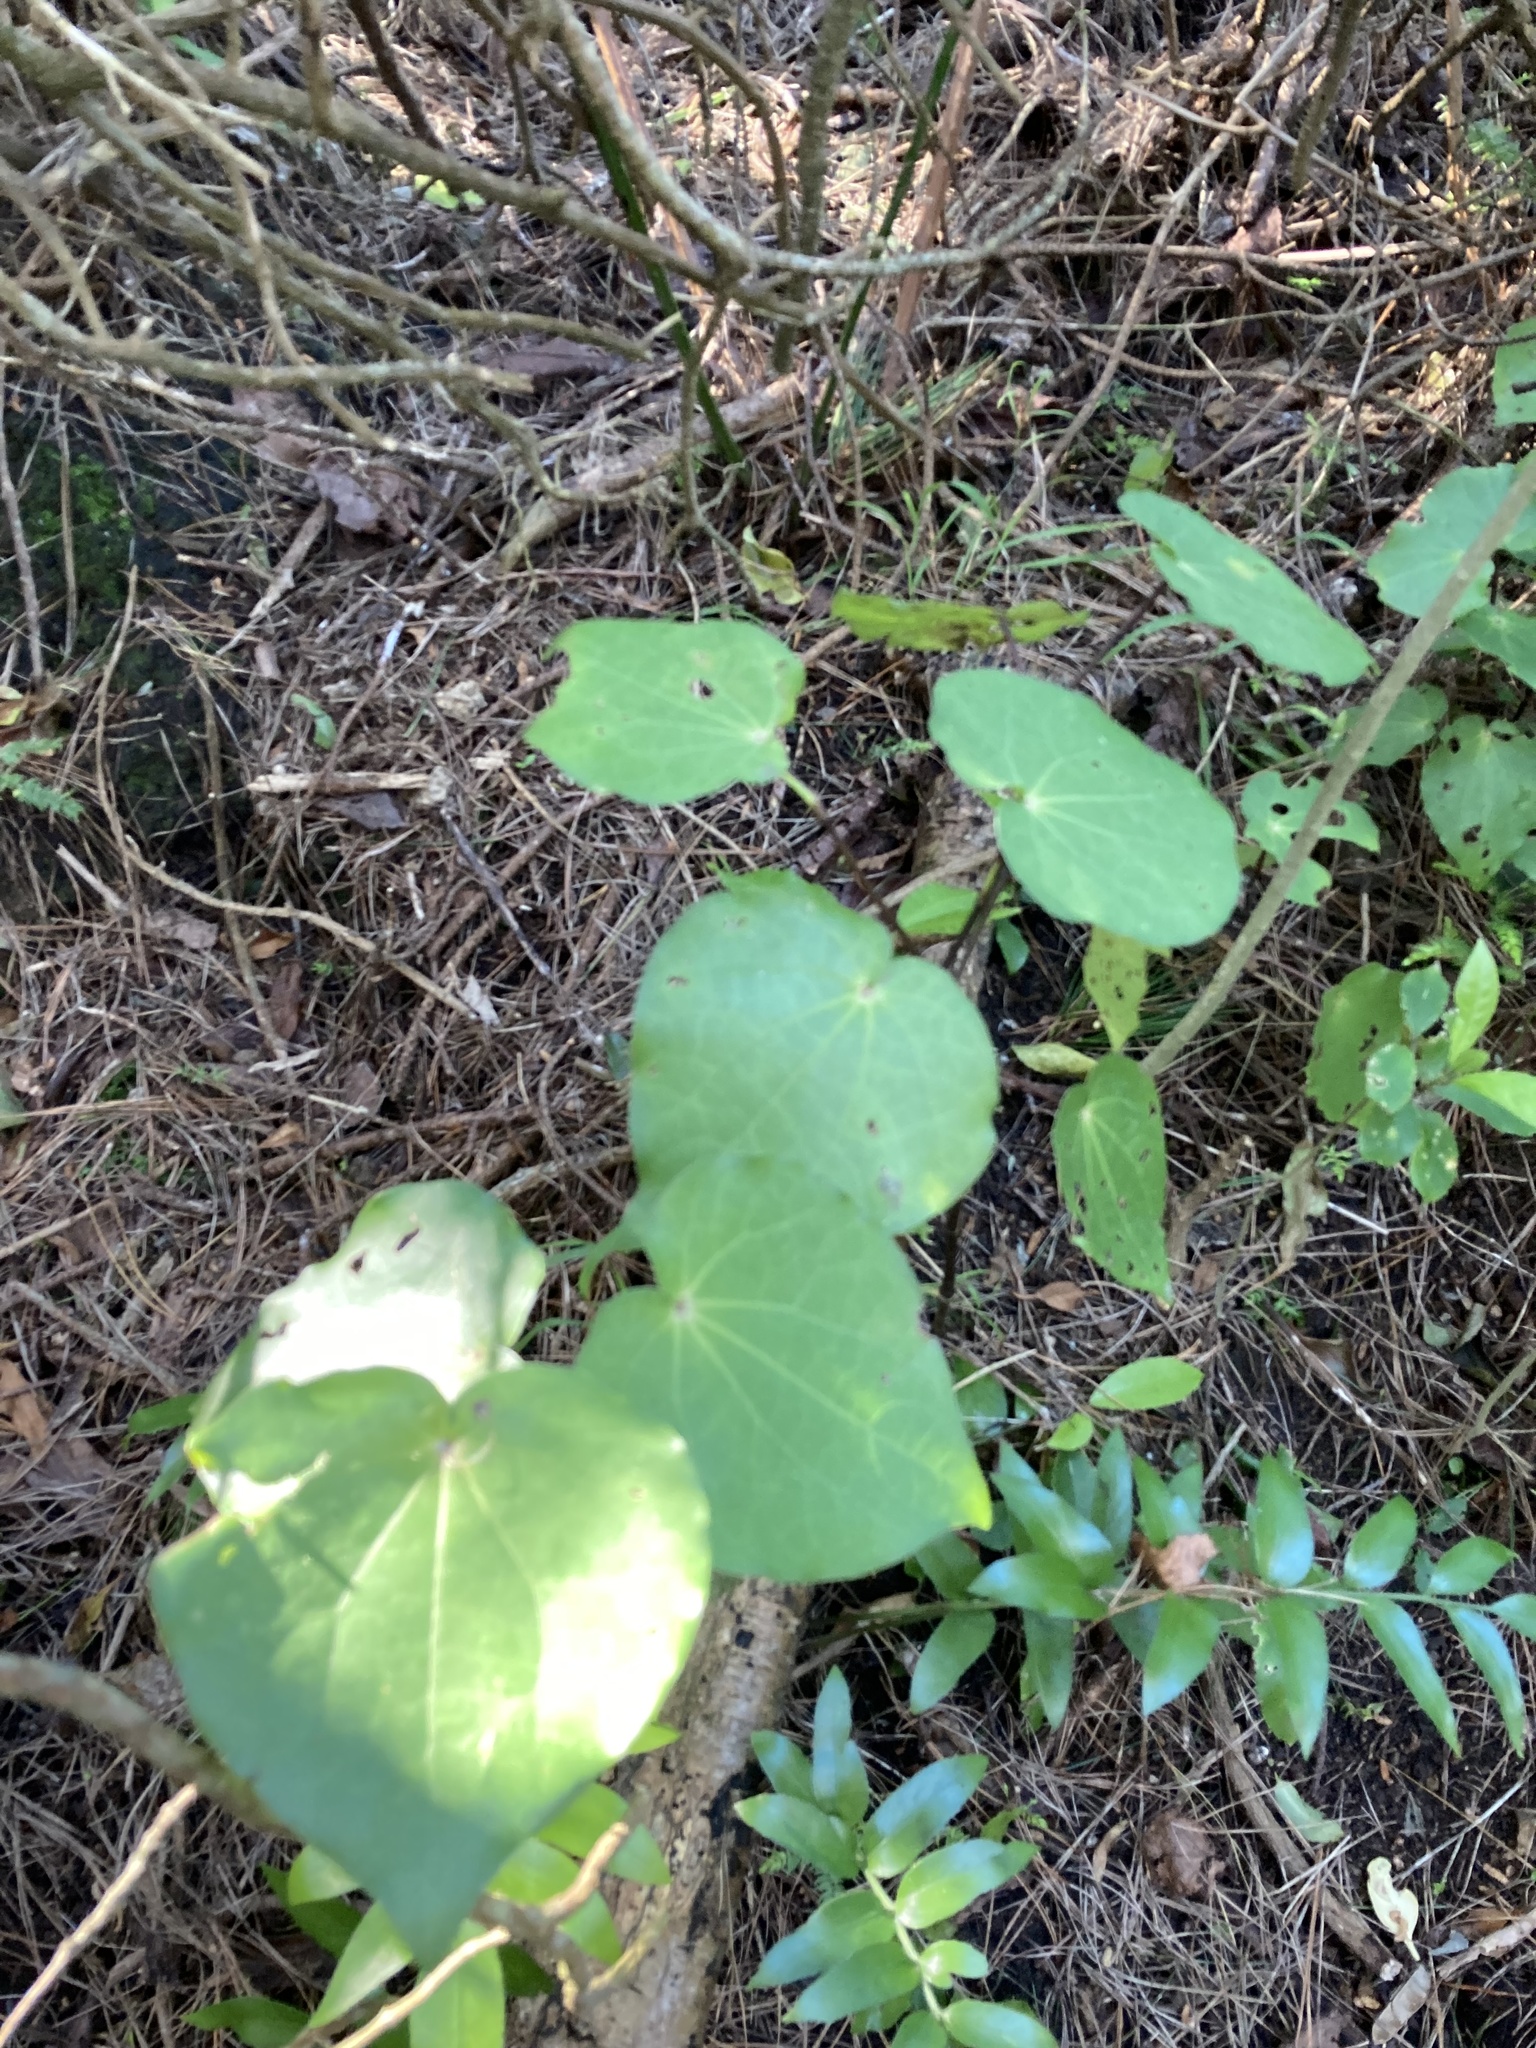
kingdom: Plantae
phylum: Tracheophyta
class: Magnoliopsida
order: Piperales
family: Piperaceae
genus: Macropiper
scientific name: Macropiper excelsum
